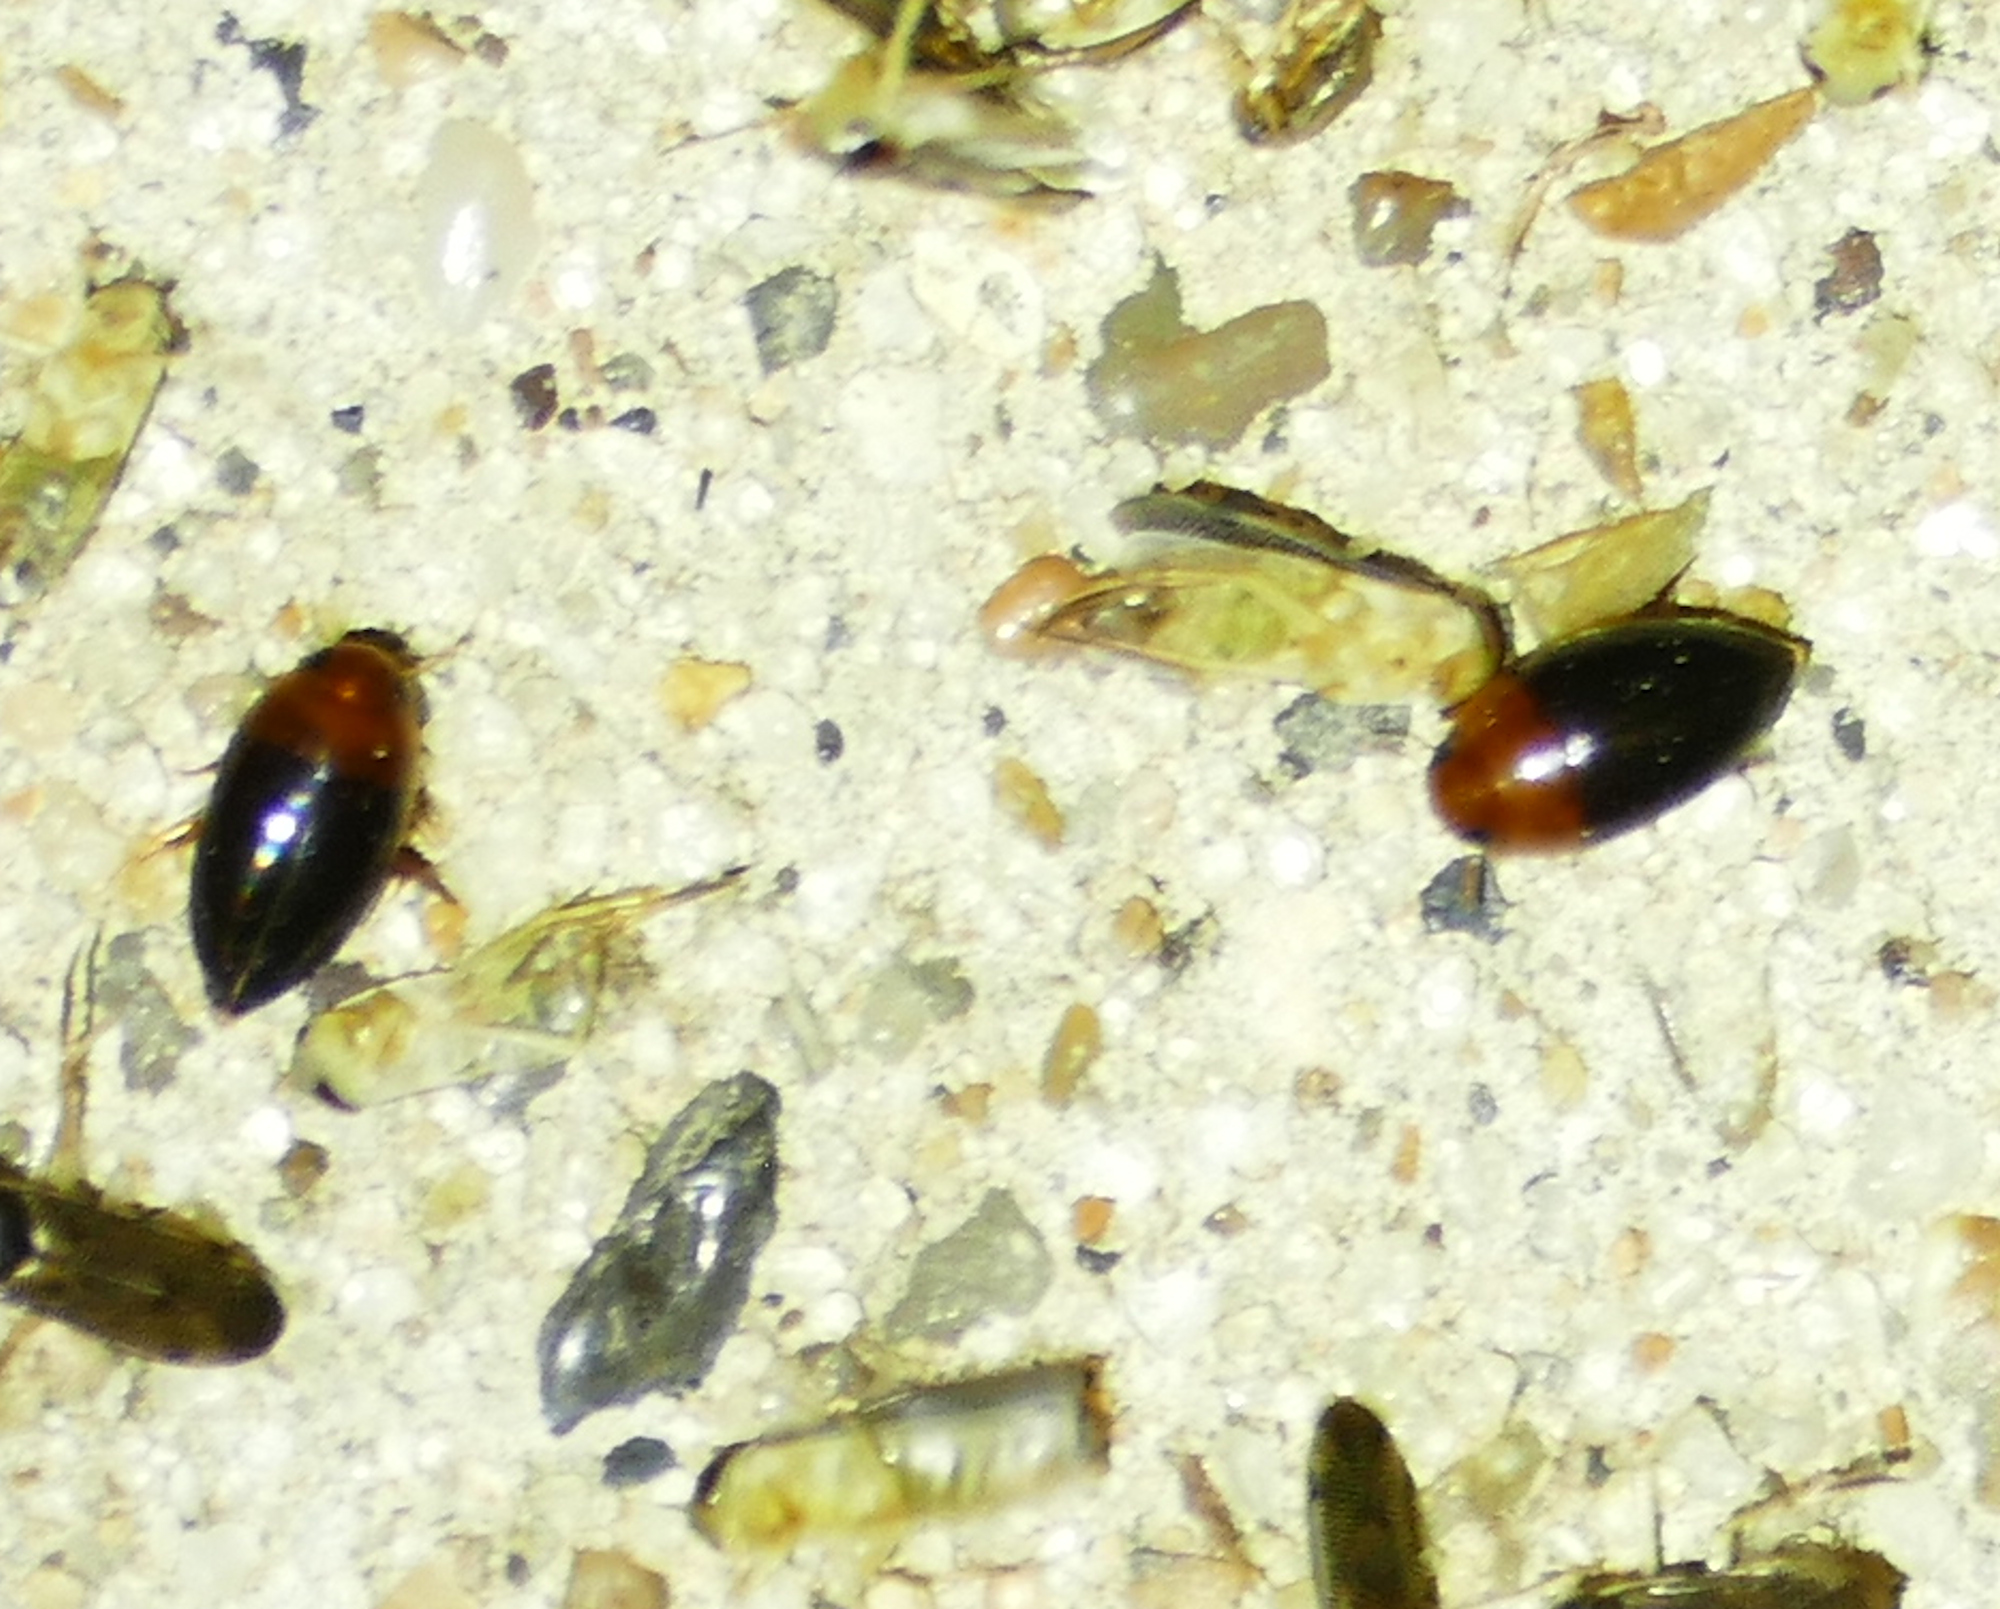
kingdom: Animalia
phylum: Arthropoda
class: Insecta
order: Coleoptera
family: Noteridae
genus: Hydrocanthus
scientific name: Hydrocanthus atripennis
